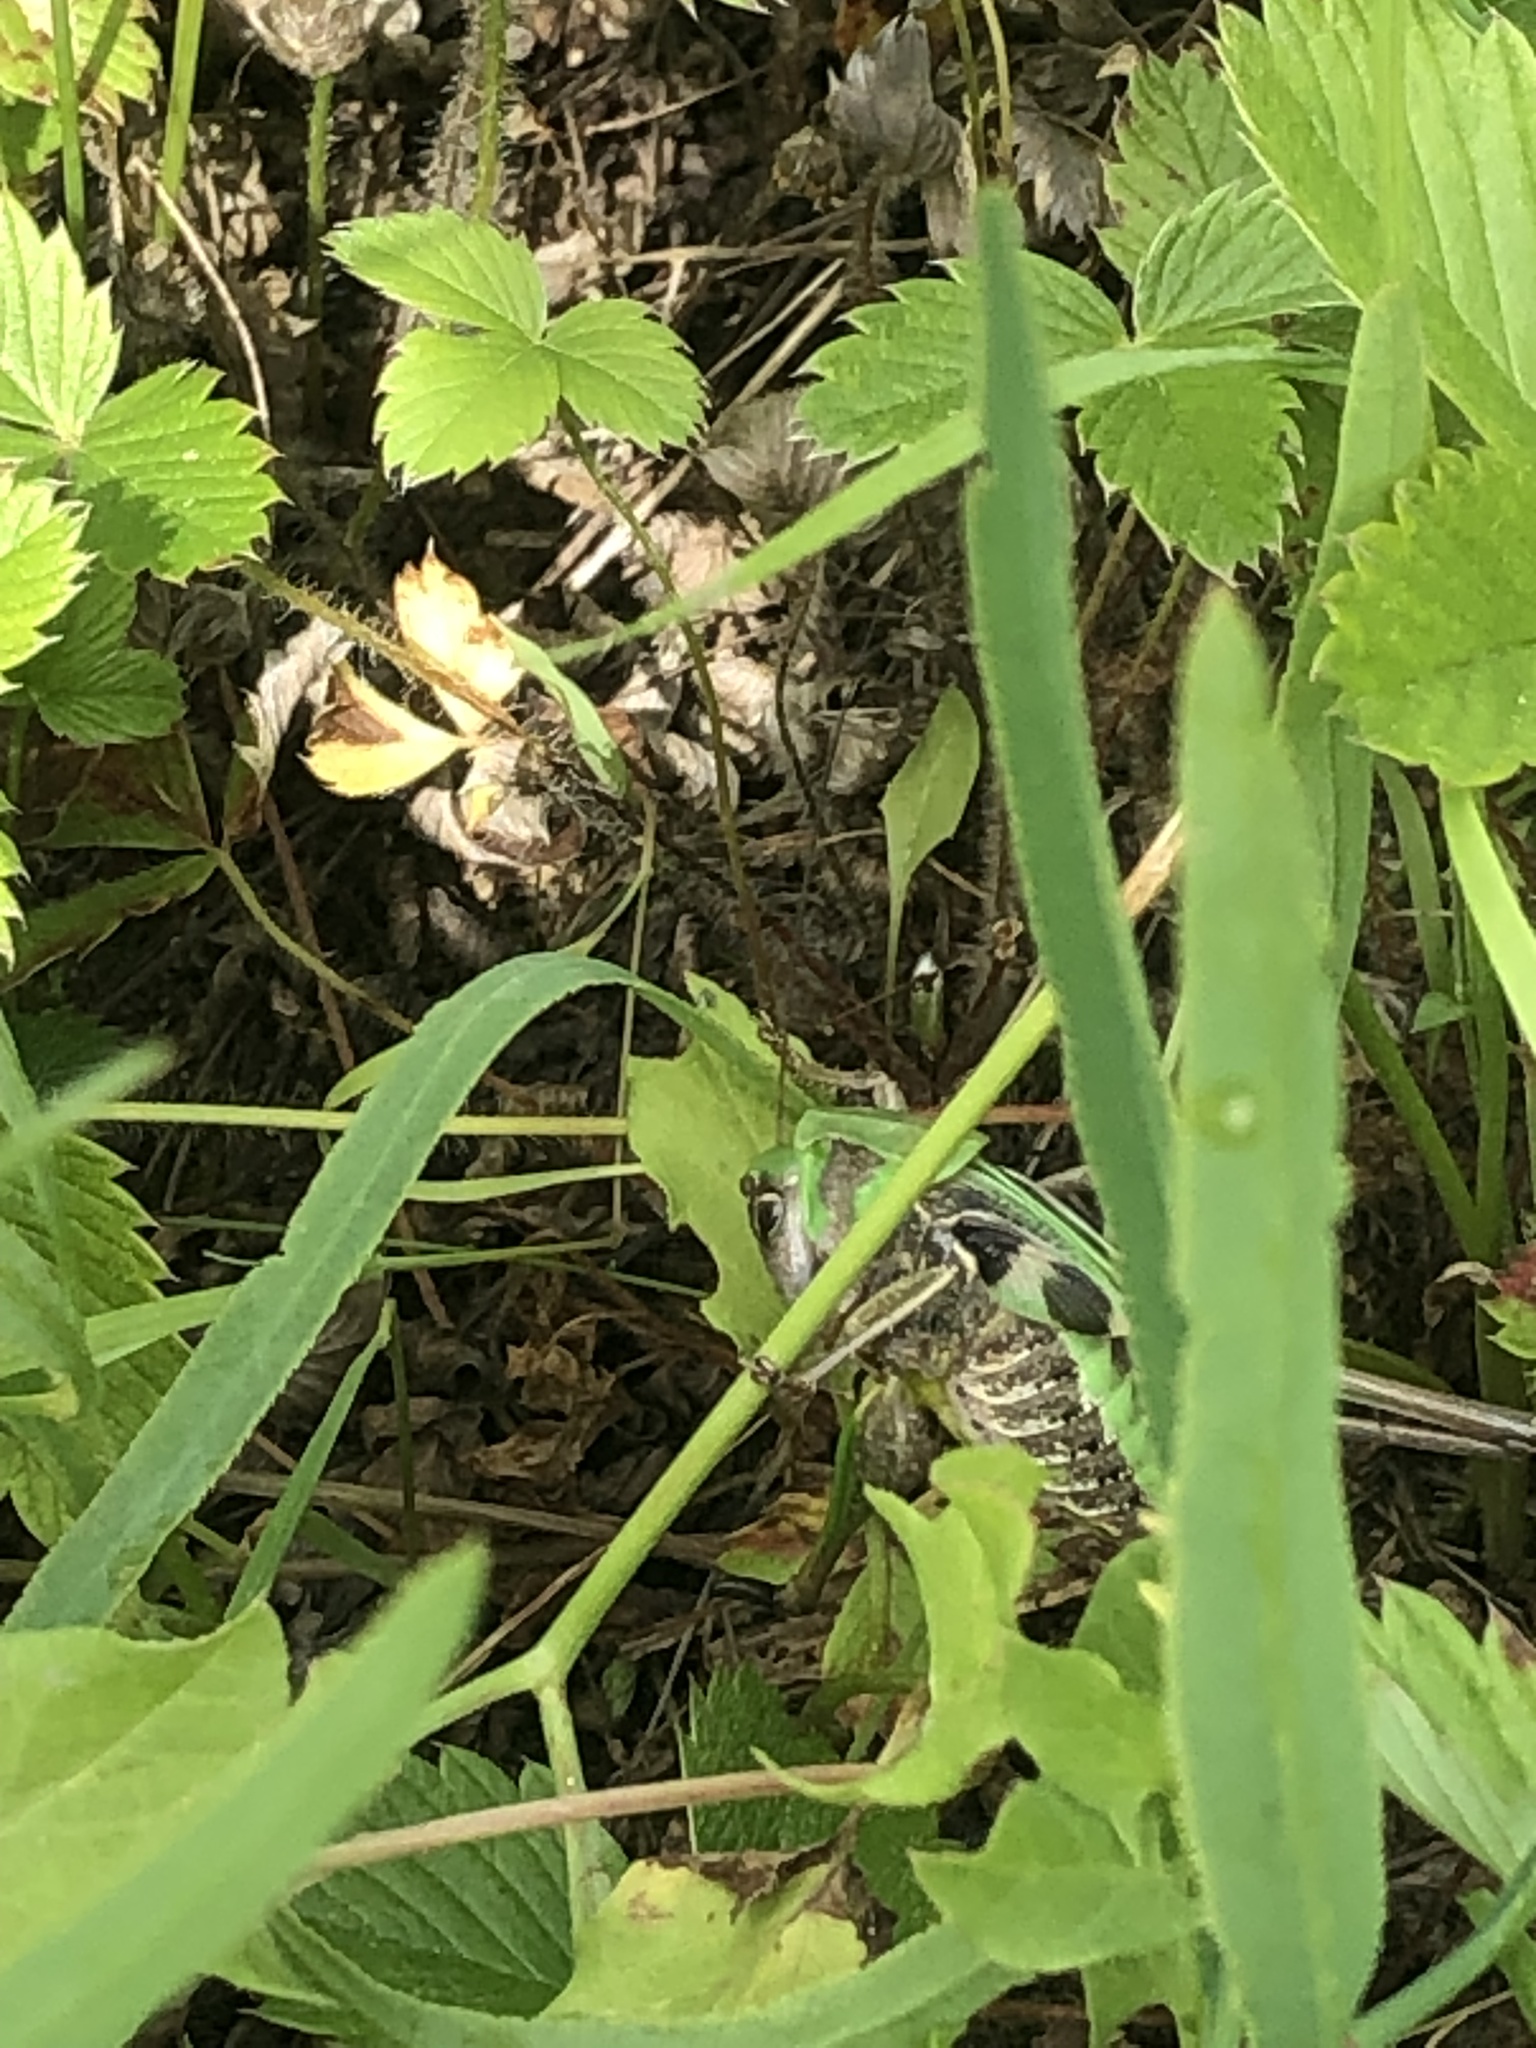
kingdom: Animalia
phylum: Arthropoda
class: Insecta
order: Orthoptera
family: Tettigoniidae
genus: Decticus
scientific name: Decticus verrucivorus
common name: Wart-biter
